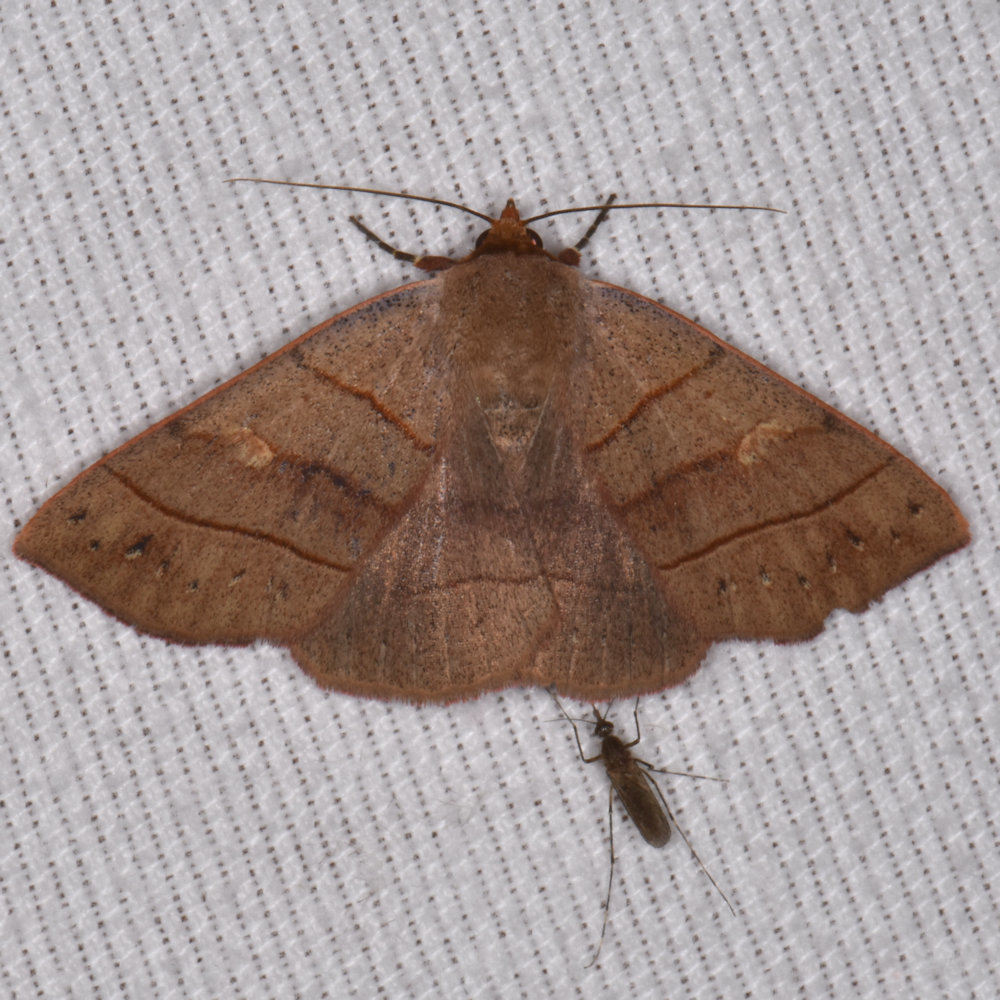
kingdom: Animalia
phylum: Arthropoda
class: Insecta
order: Lepidoptera
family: Erebidae
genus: Panopoda
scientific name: Panopoda rufimargo
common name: Red-lined panopoda moth
